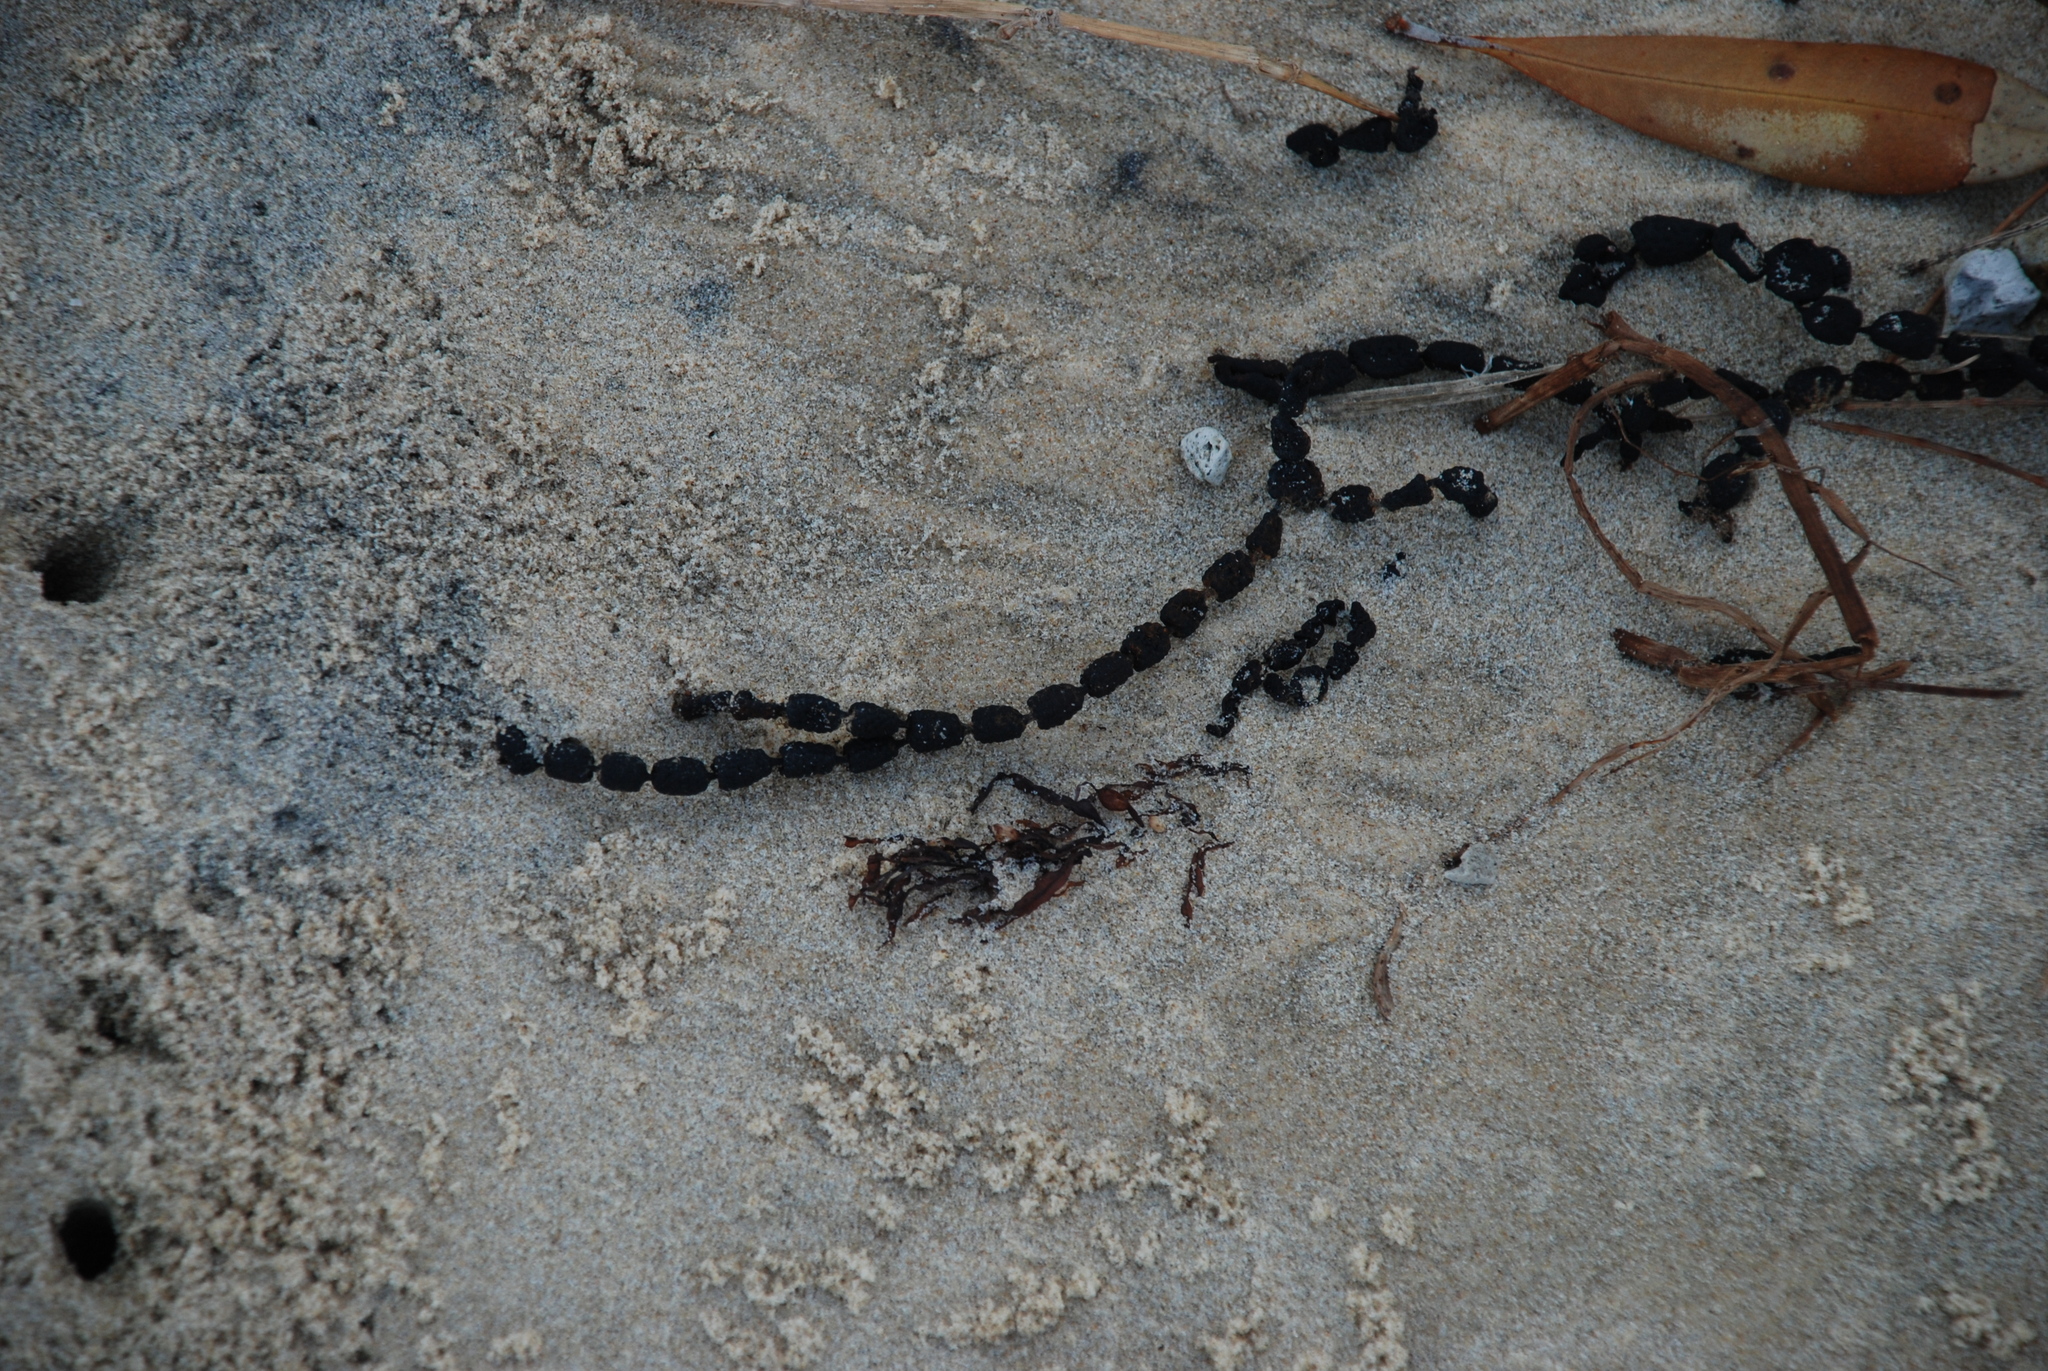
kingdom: Chromista
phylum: Ochrophyta
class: Phaeophyceae
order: Fucales
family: Hormosiraceae
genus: Hormosira
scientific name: Hormosira banksii
